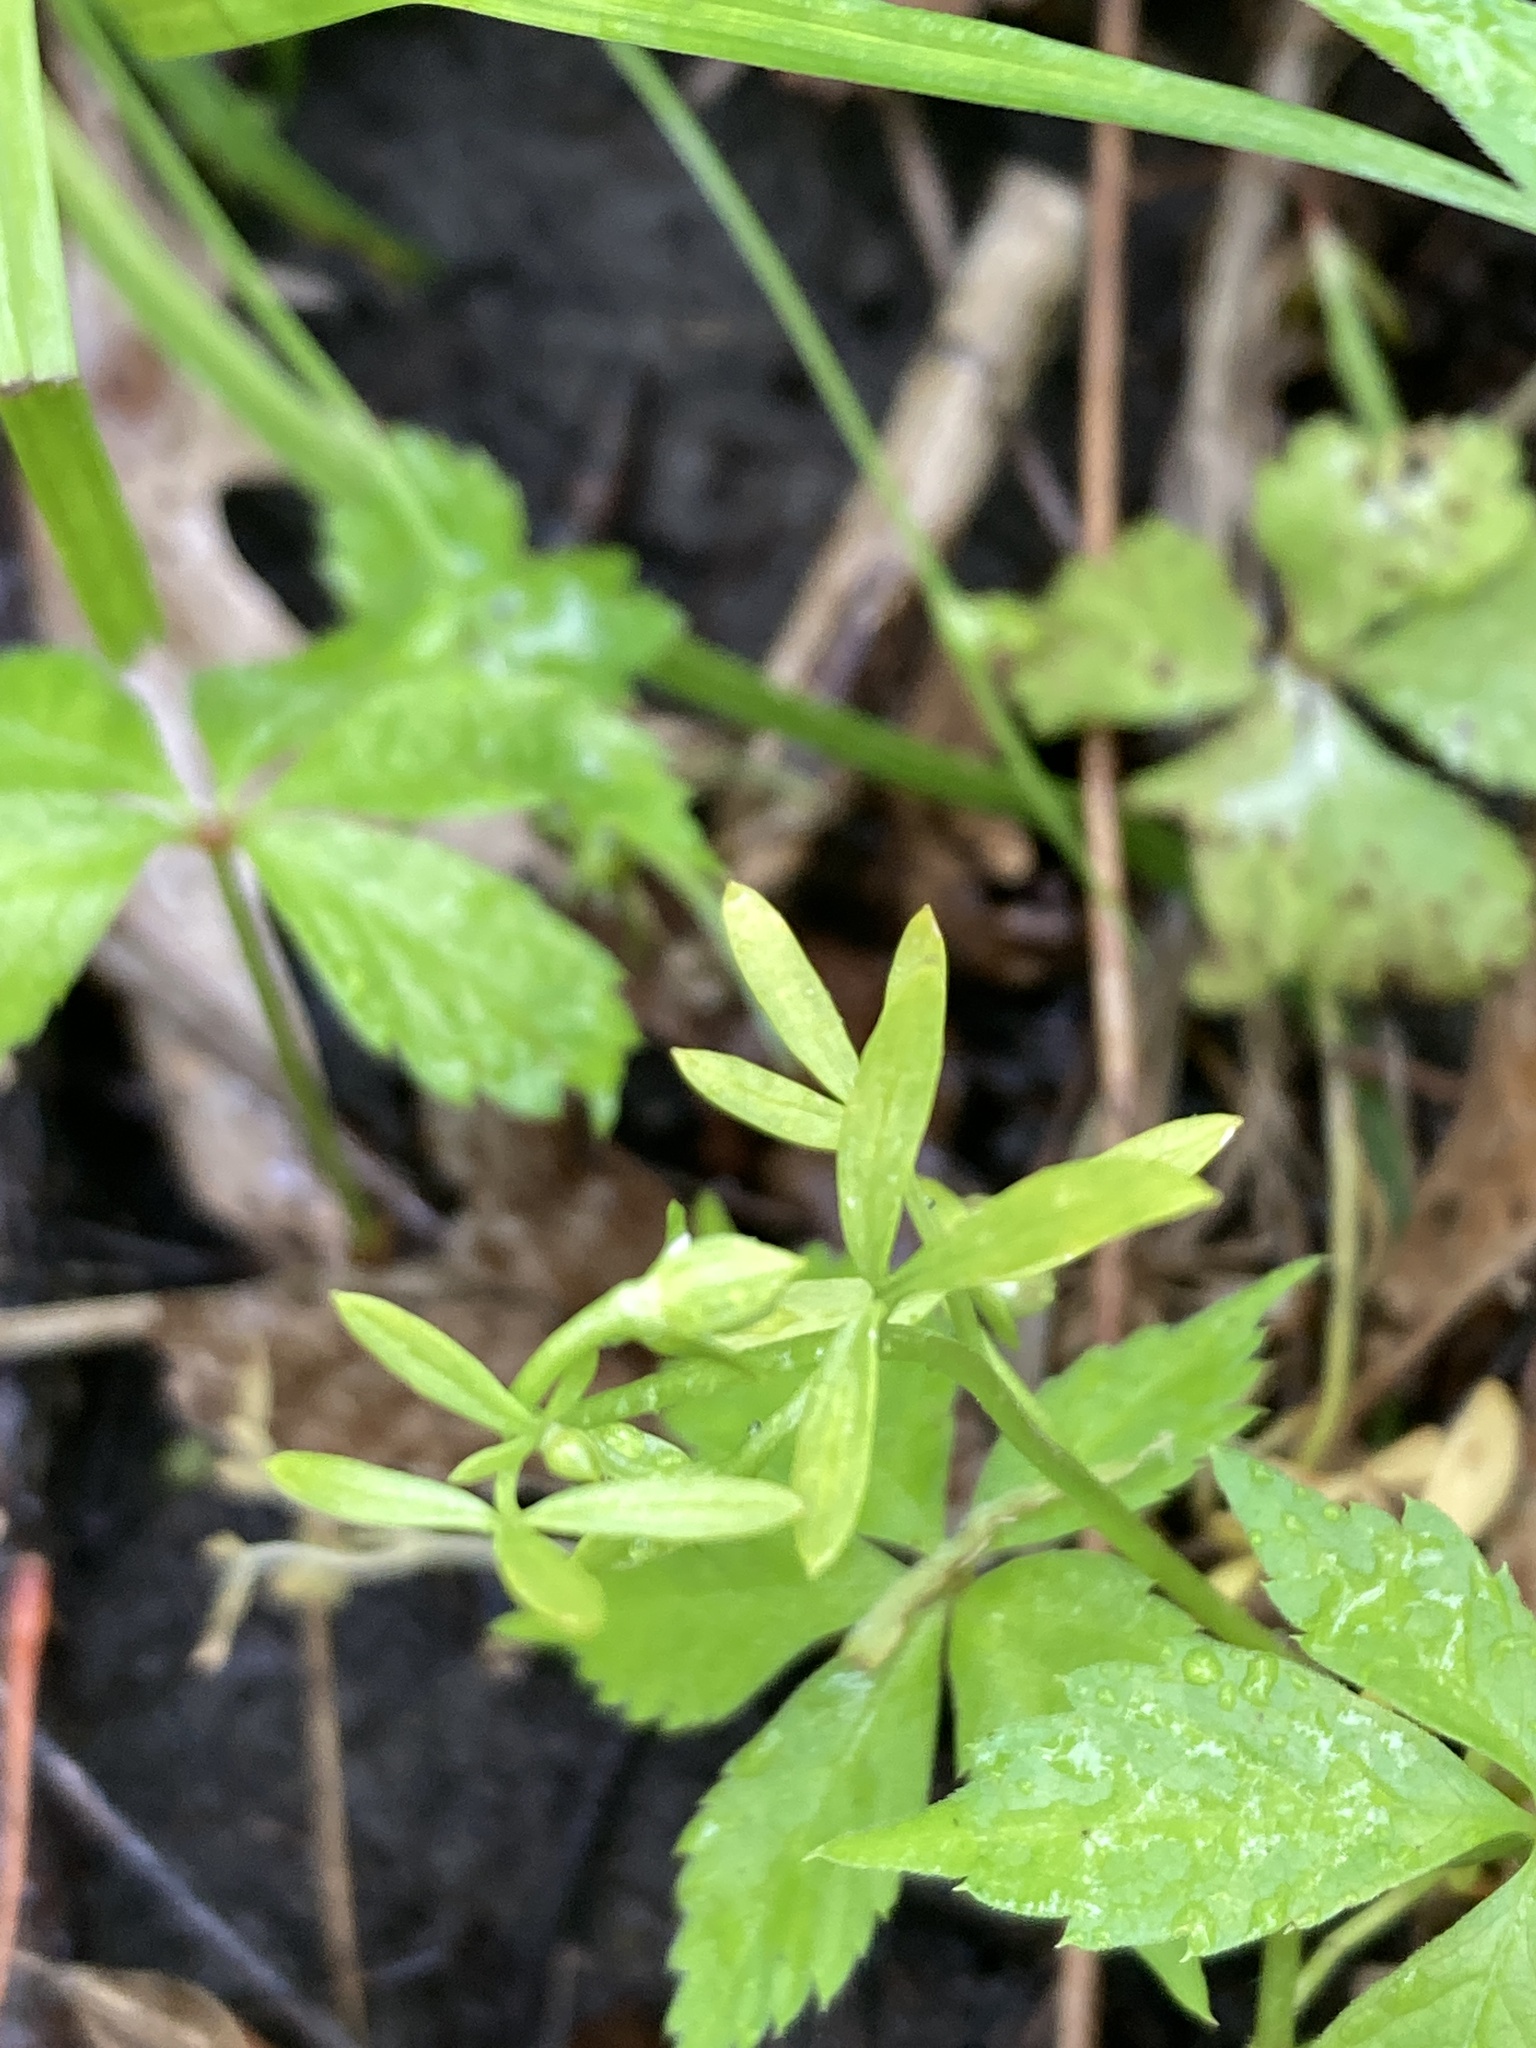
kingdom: Plantae
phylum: Tracheophyta
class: Magnoliopsida
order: Brassicales
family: Limnanthaceae
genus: Floerkea
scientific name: Floerkea proserpinacoides
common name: False mermaid
